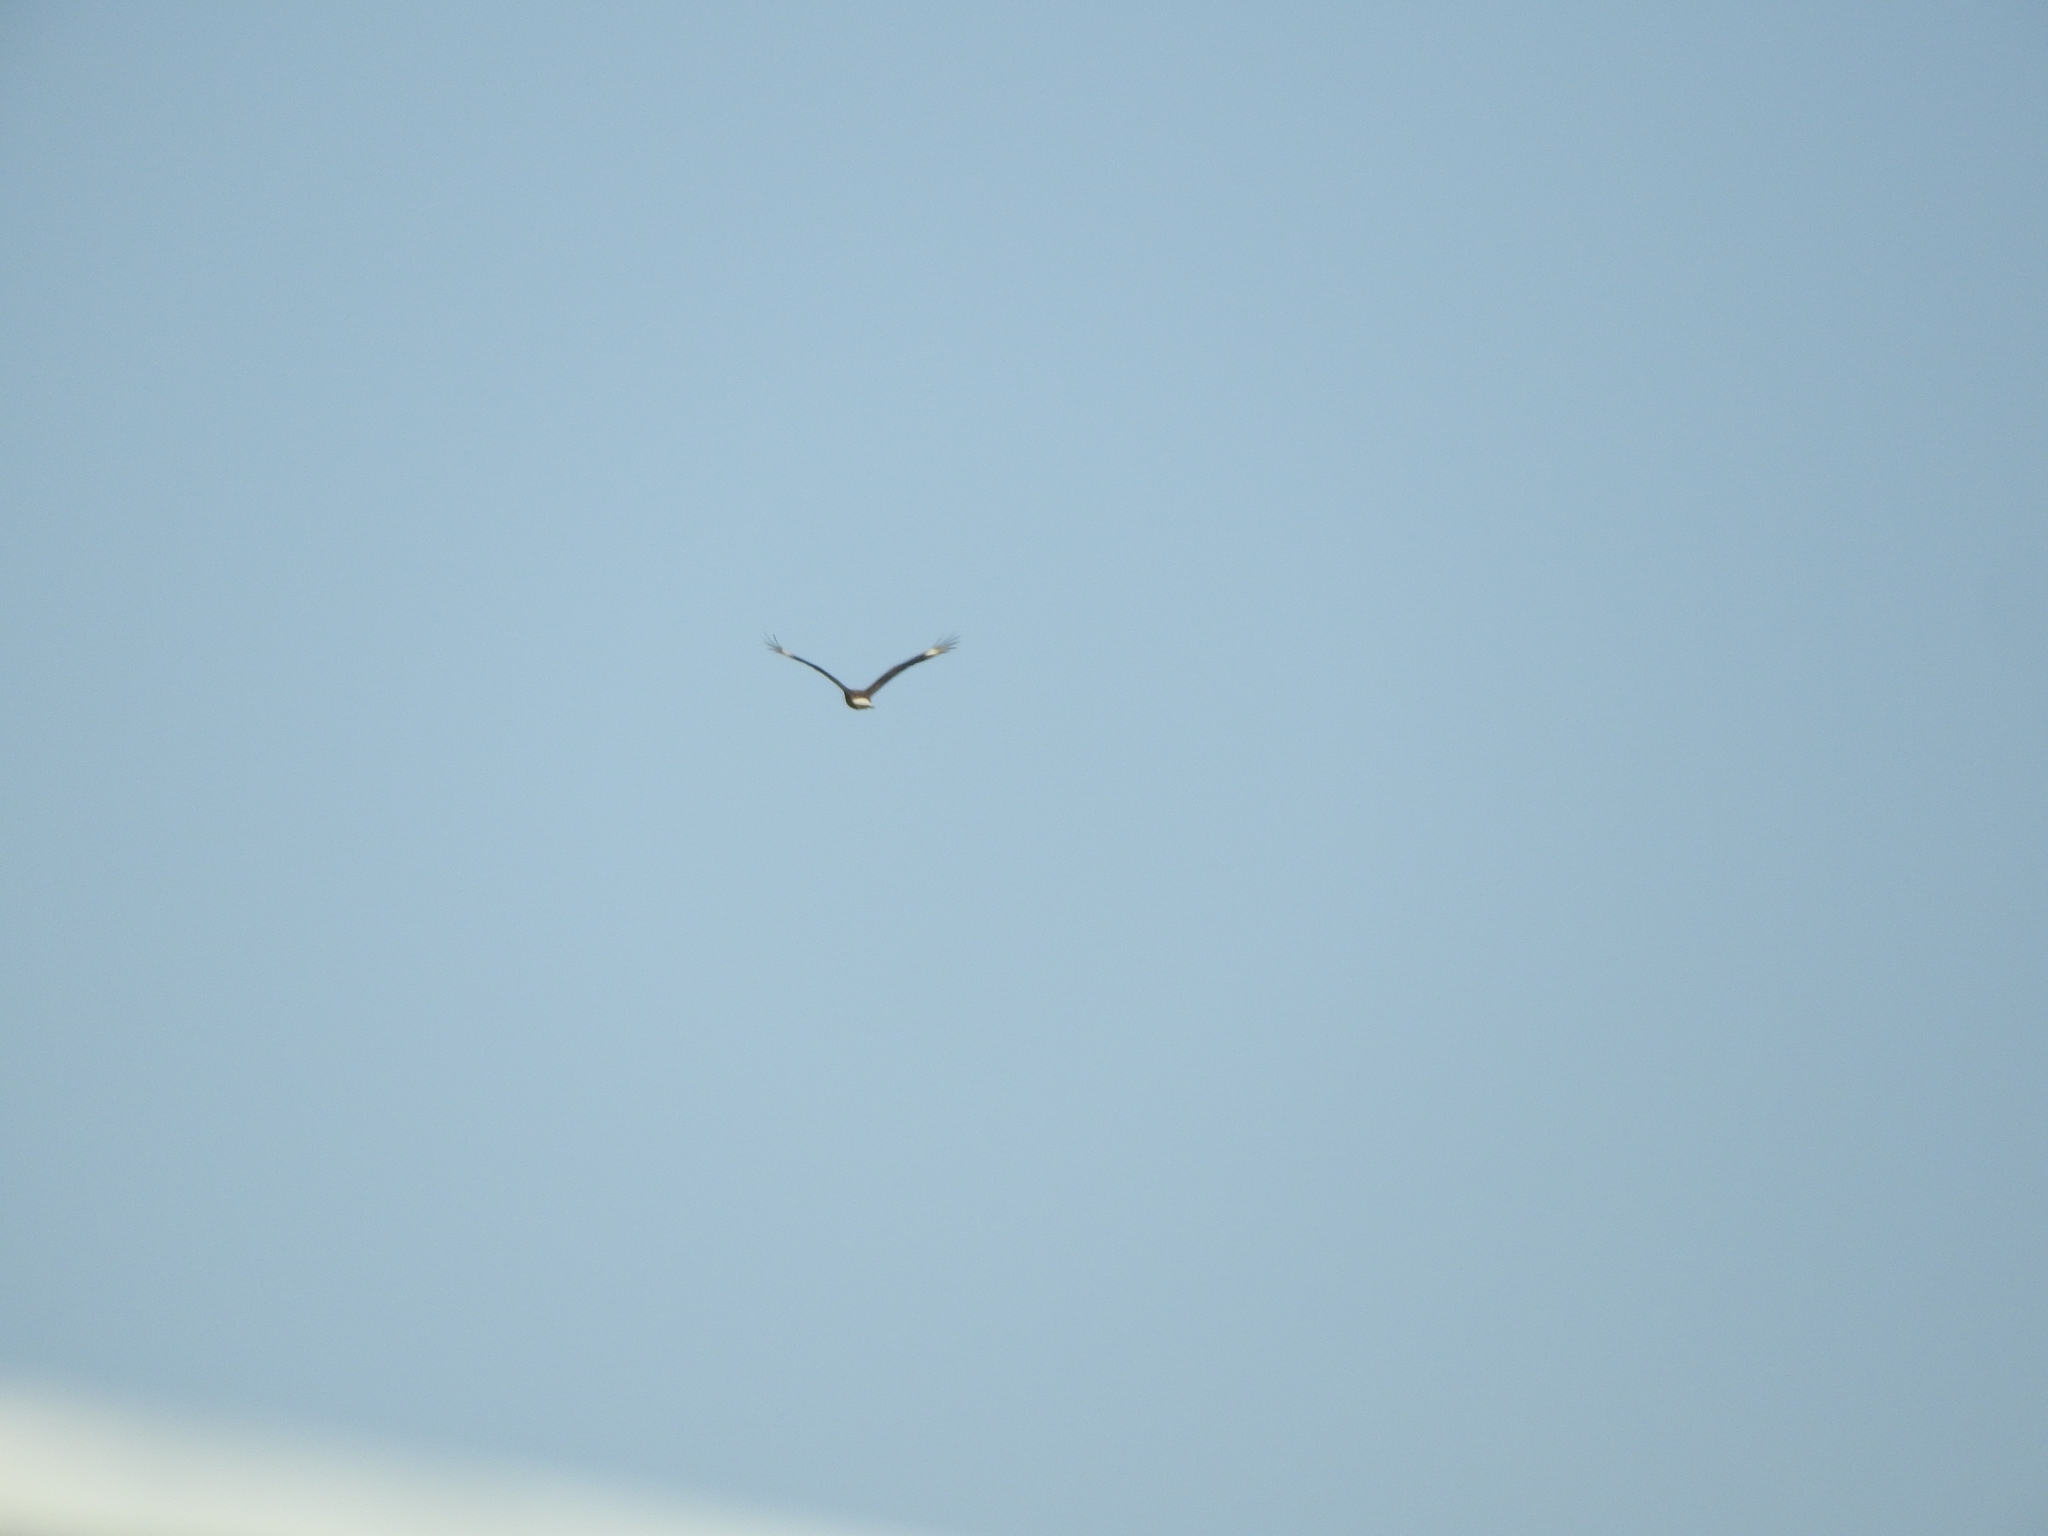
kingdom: Animalia
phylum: Chordata
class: Aves
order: Falconiformes
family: Falconidae
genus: Caracara
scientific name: Caracara plancus
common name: Southern caracara
